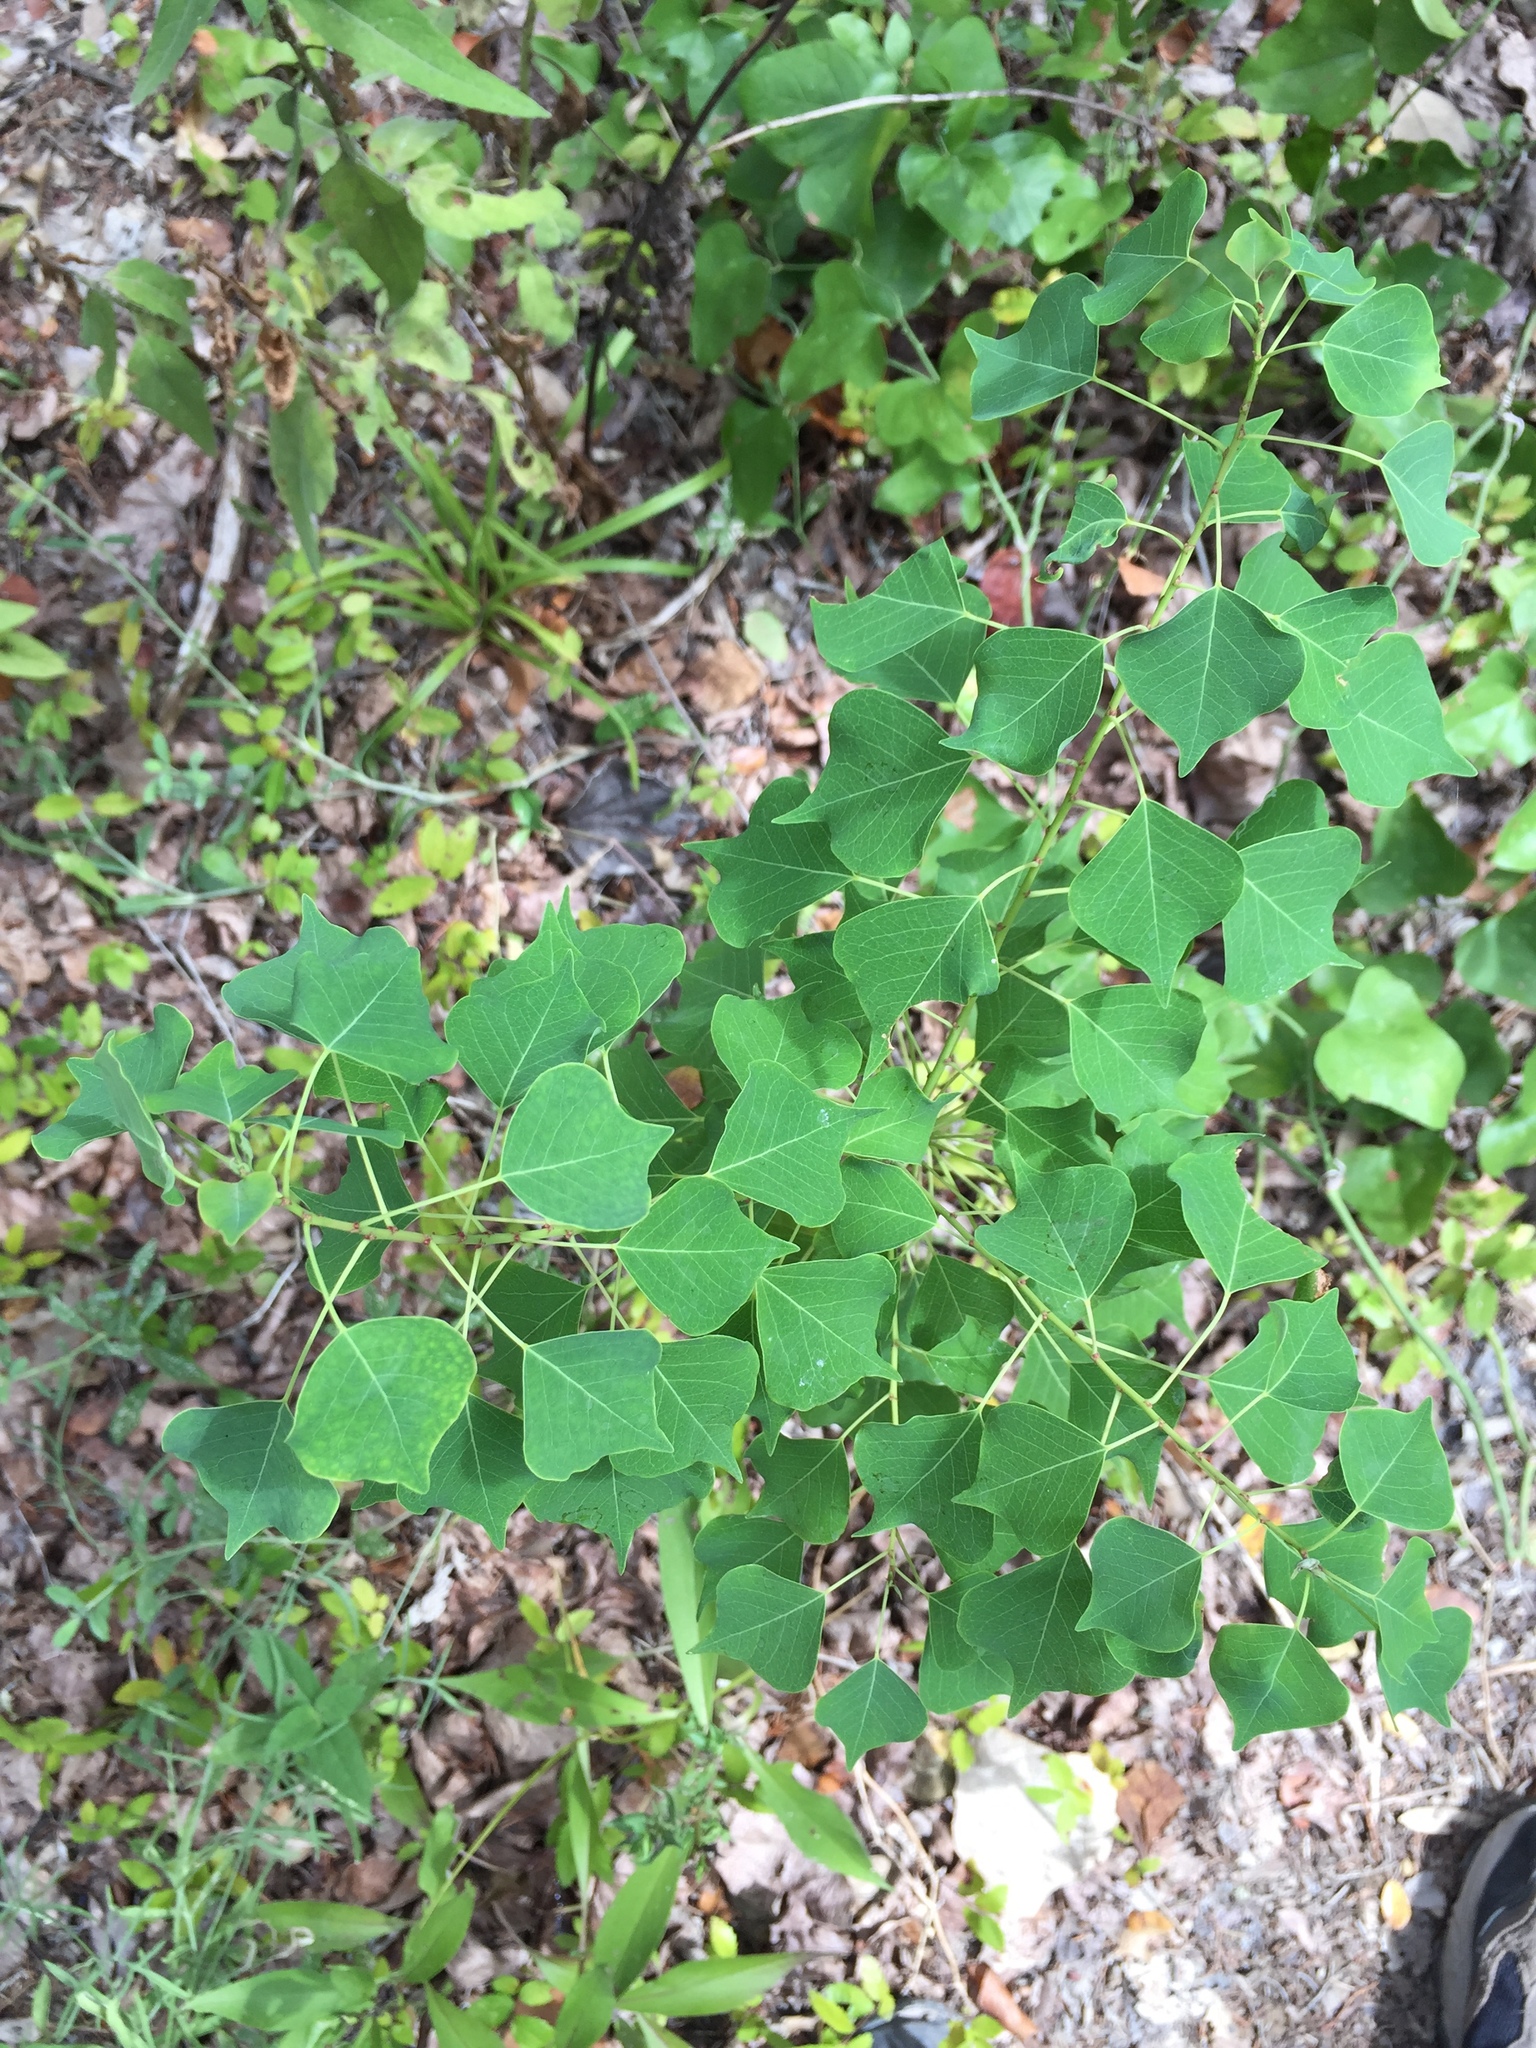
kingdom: Plantae
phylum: Tracheophyta
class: Magnoliopsida
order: Malpighiales
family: Euphorbiaceae
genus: Triadica
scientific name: Triadica sebifera
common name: Chinese tallow
